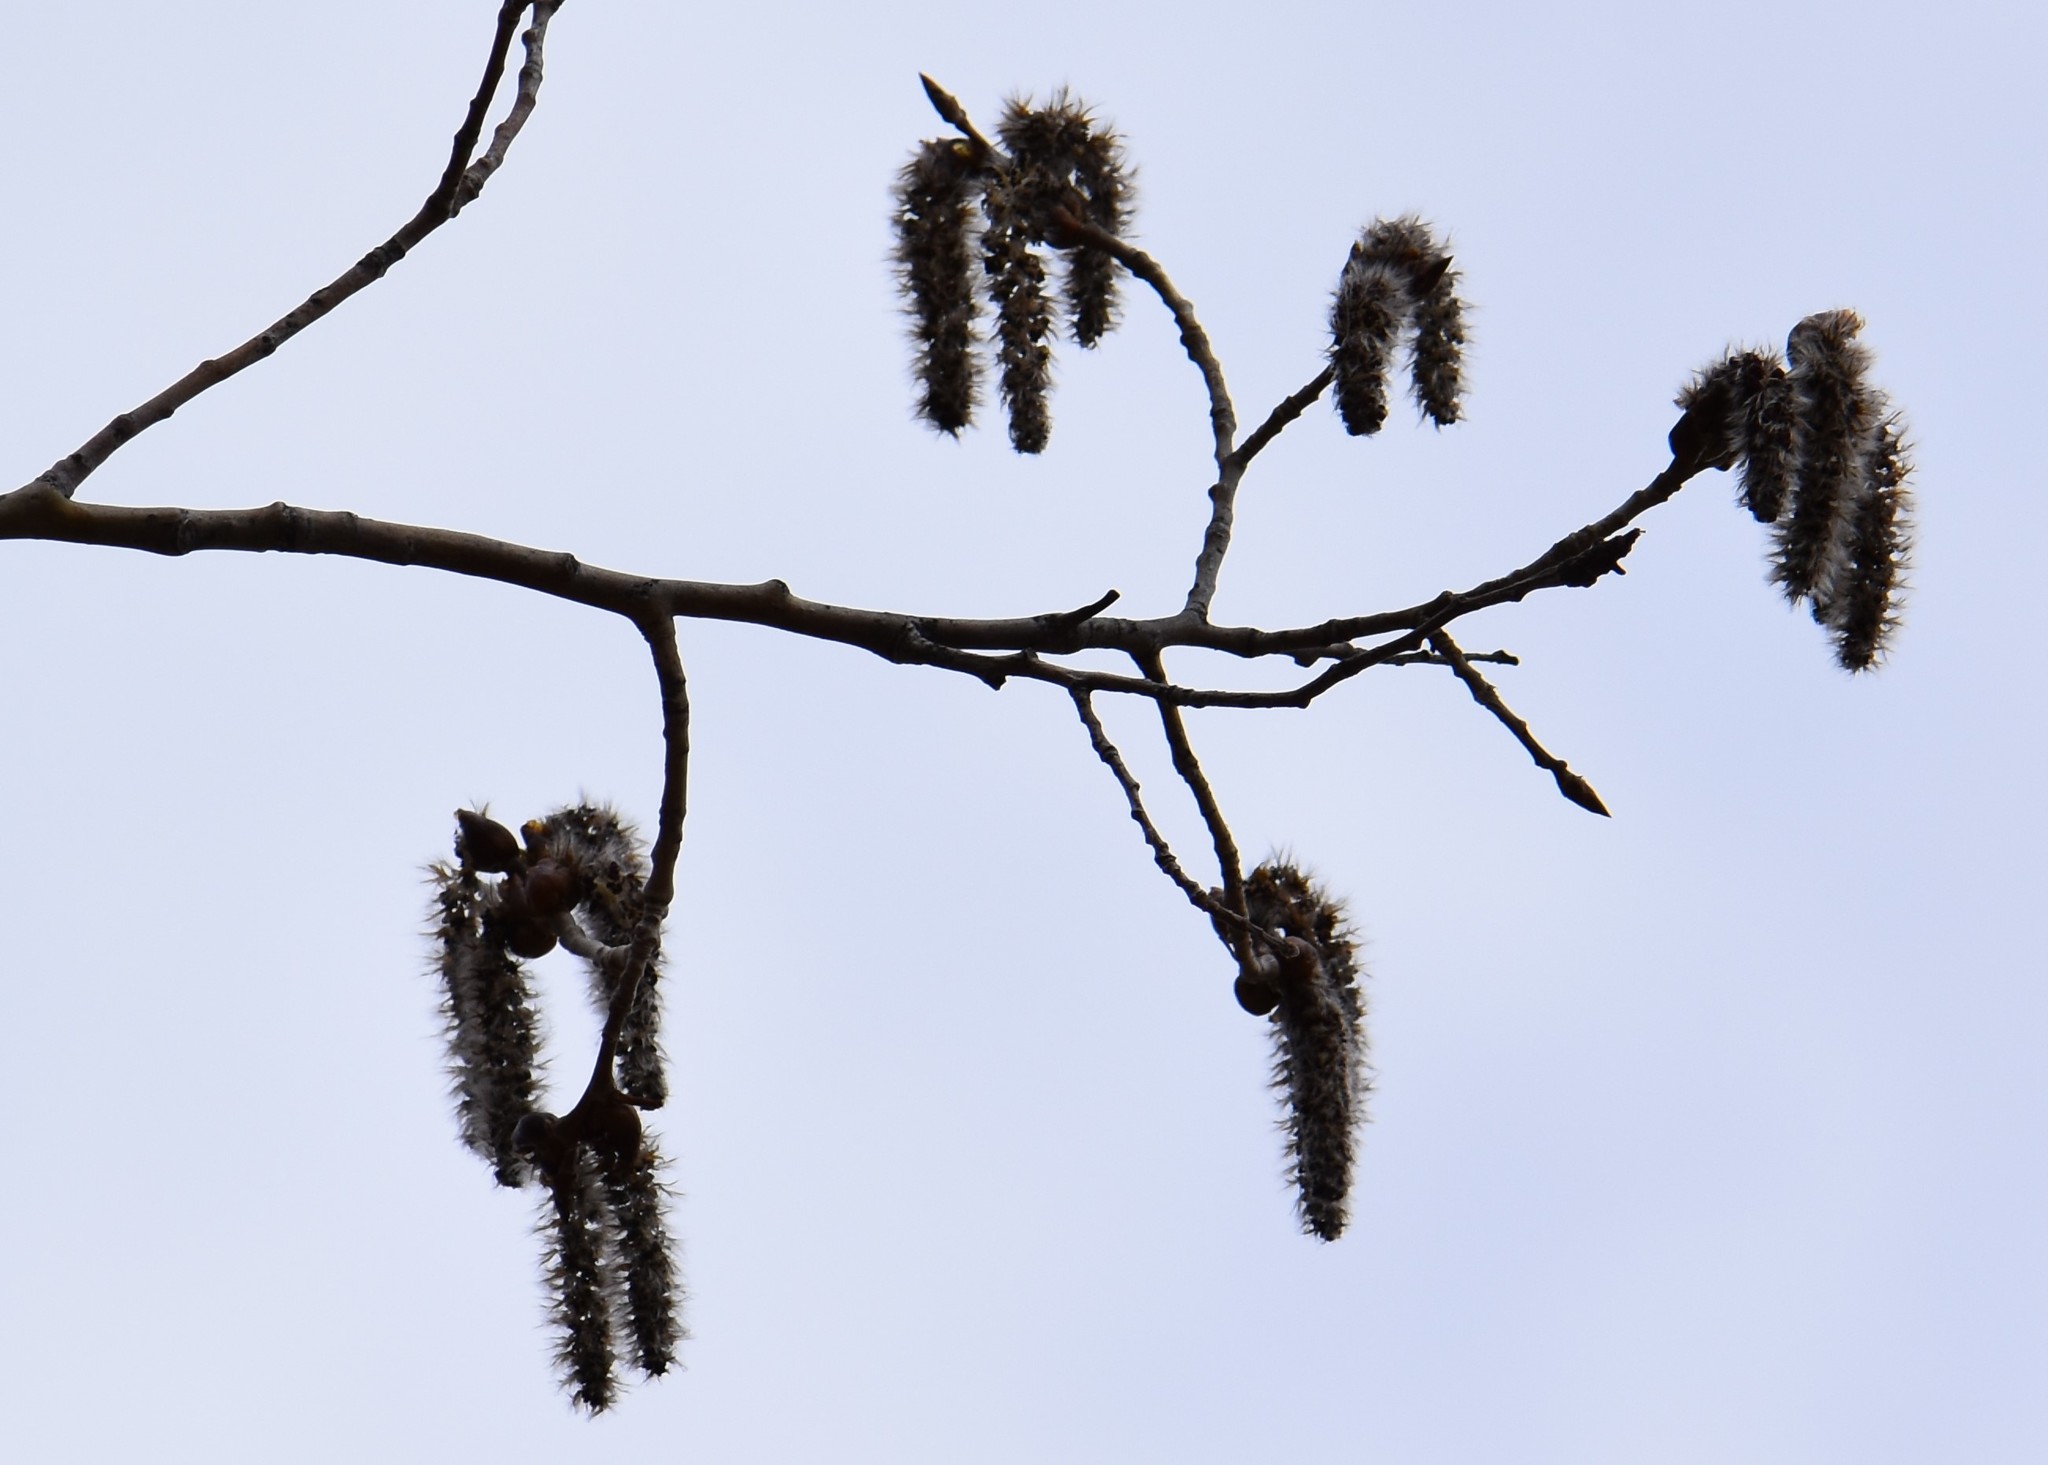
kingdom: Plantae
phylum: Tracheophyta
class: Magnoliopsida
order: Malpighiales
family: Salicaceae
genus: Populus
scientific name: Populus tremuloides
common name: Quaking aspen
